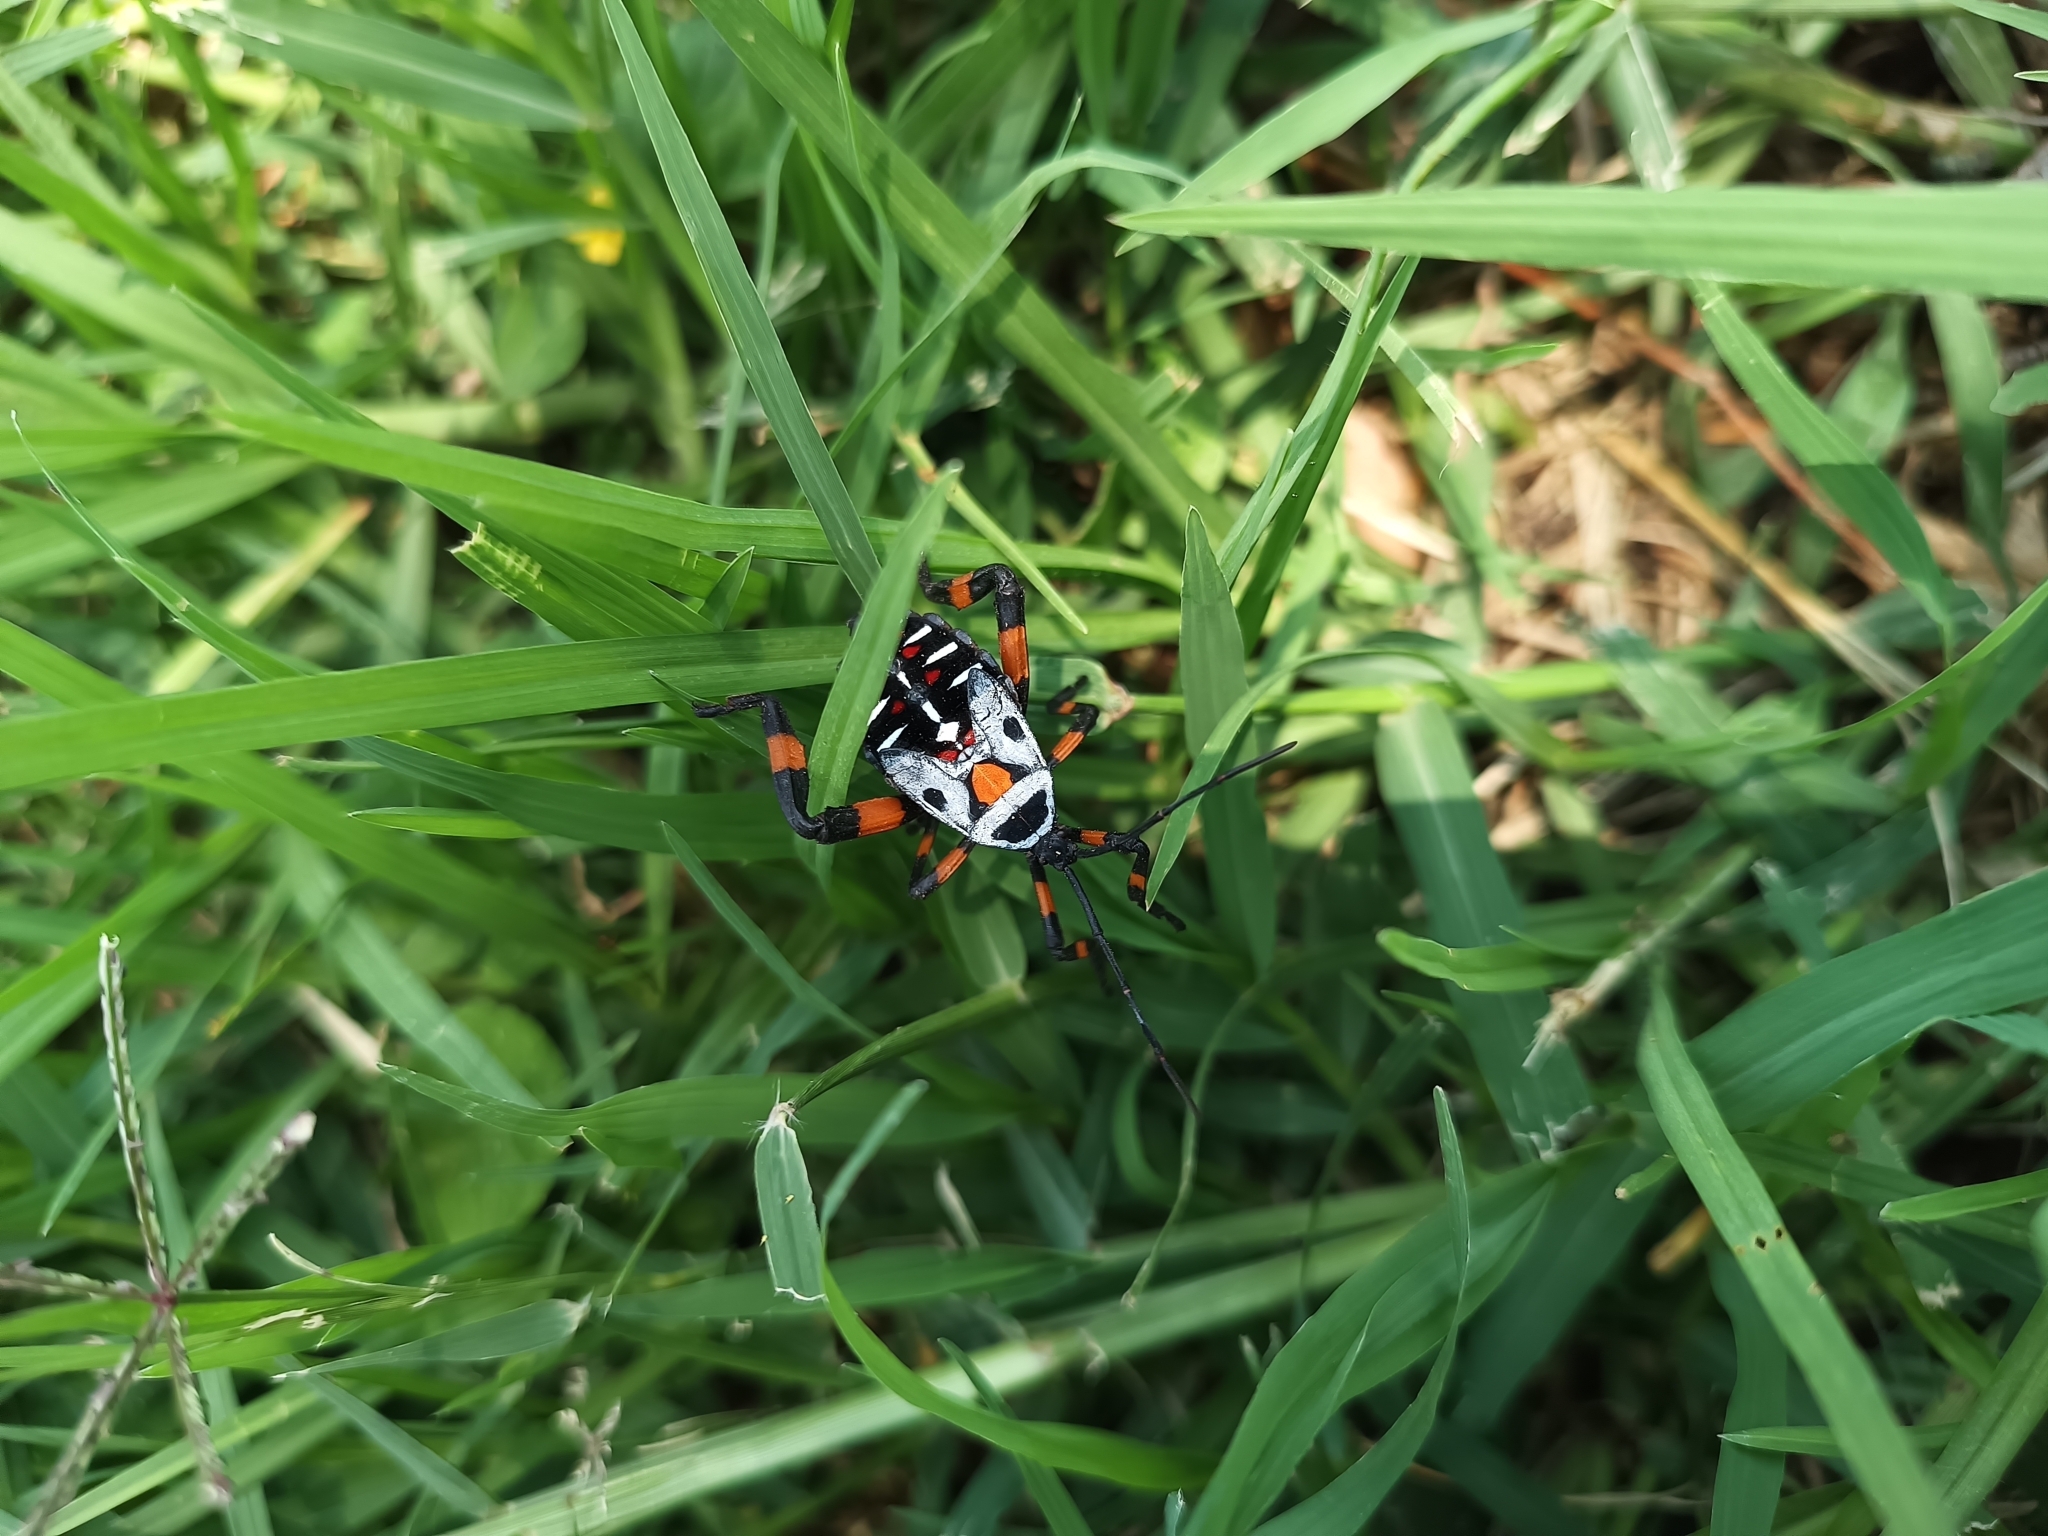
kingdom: Animalia
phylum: Arthropoda
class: Insecta
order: Hemiptera
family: Coreidae
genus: Thasus
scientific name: Thasus
